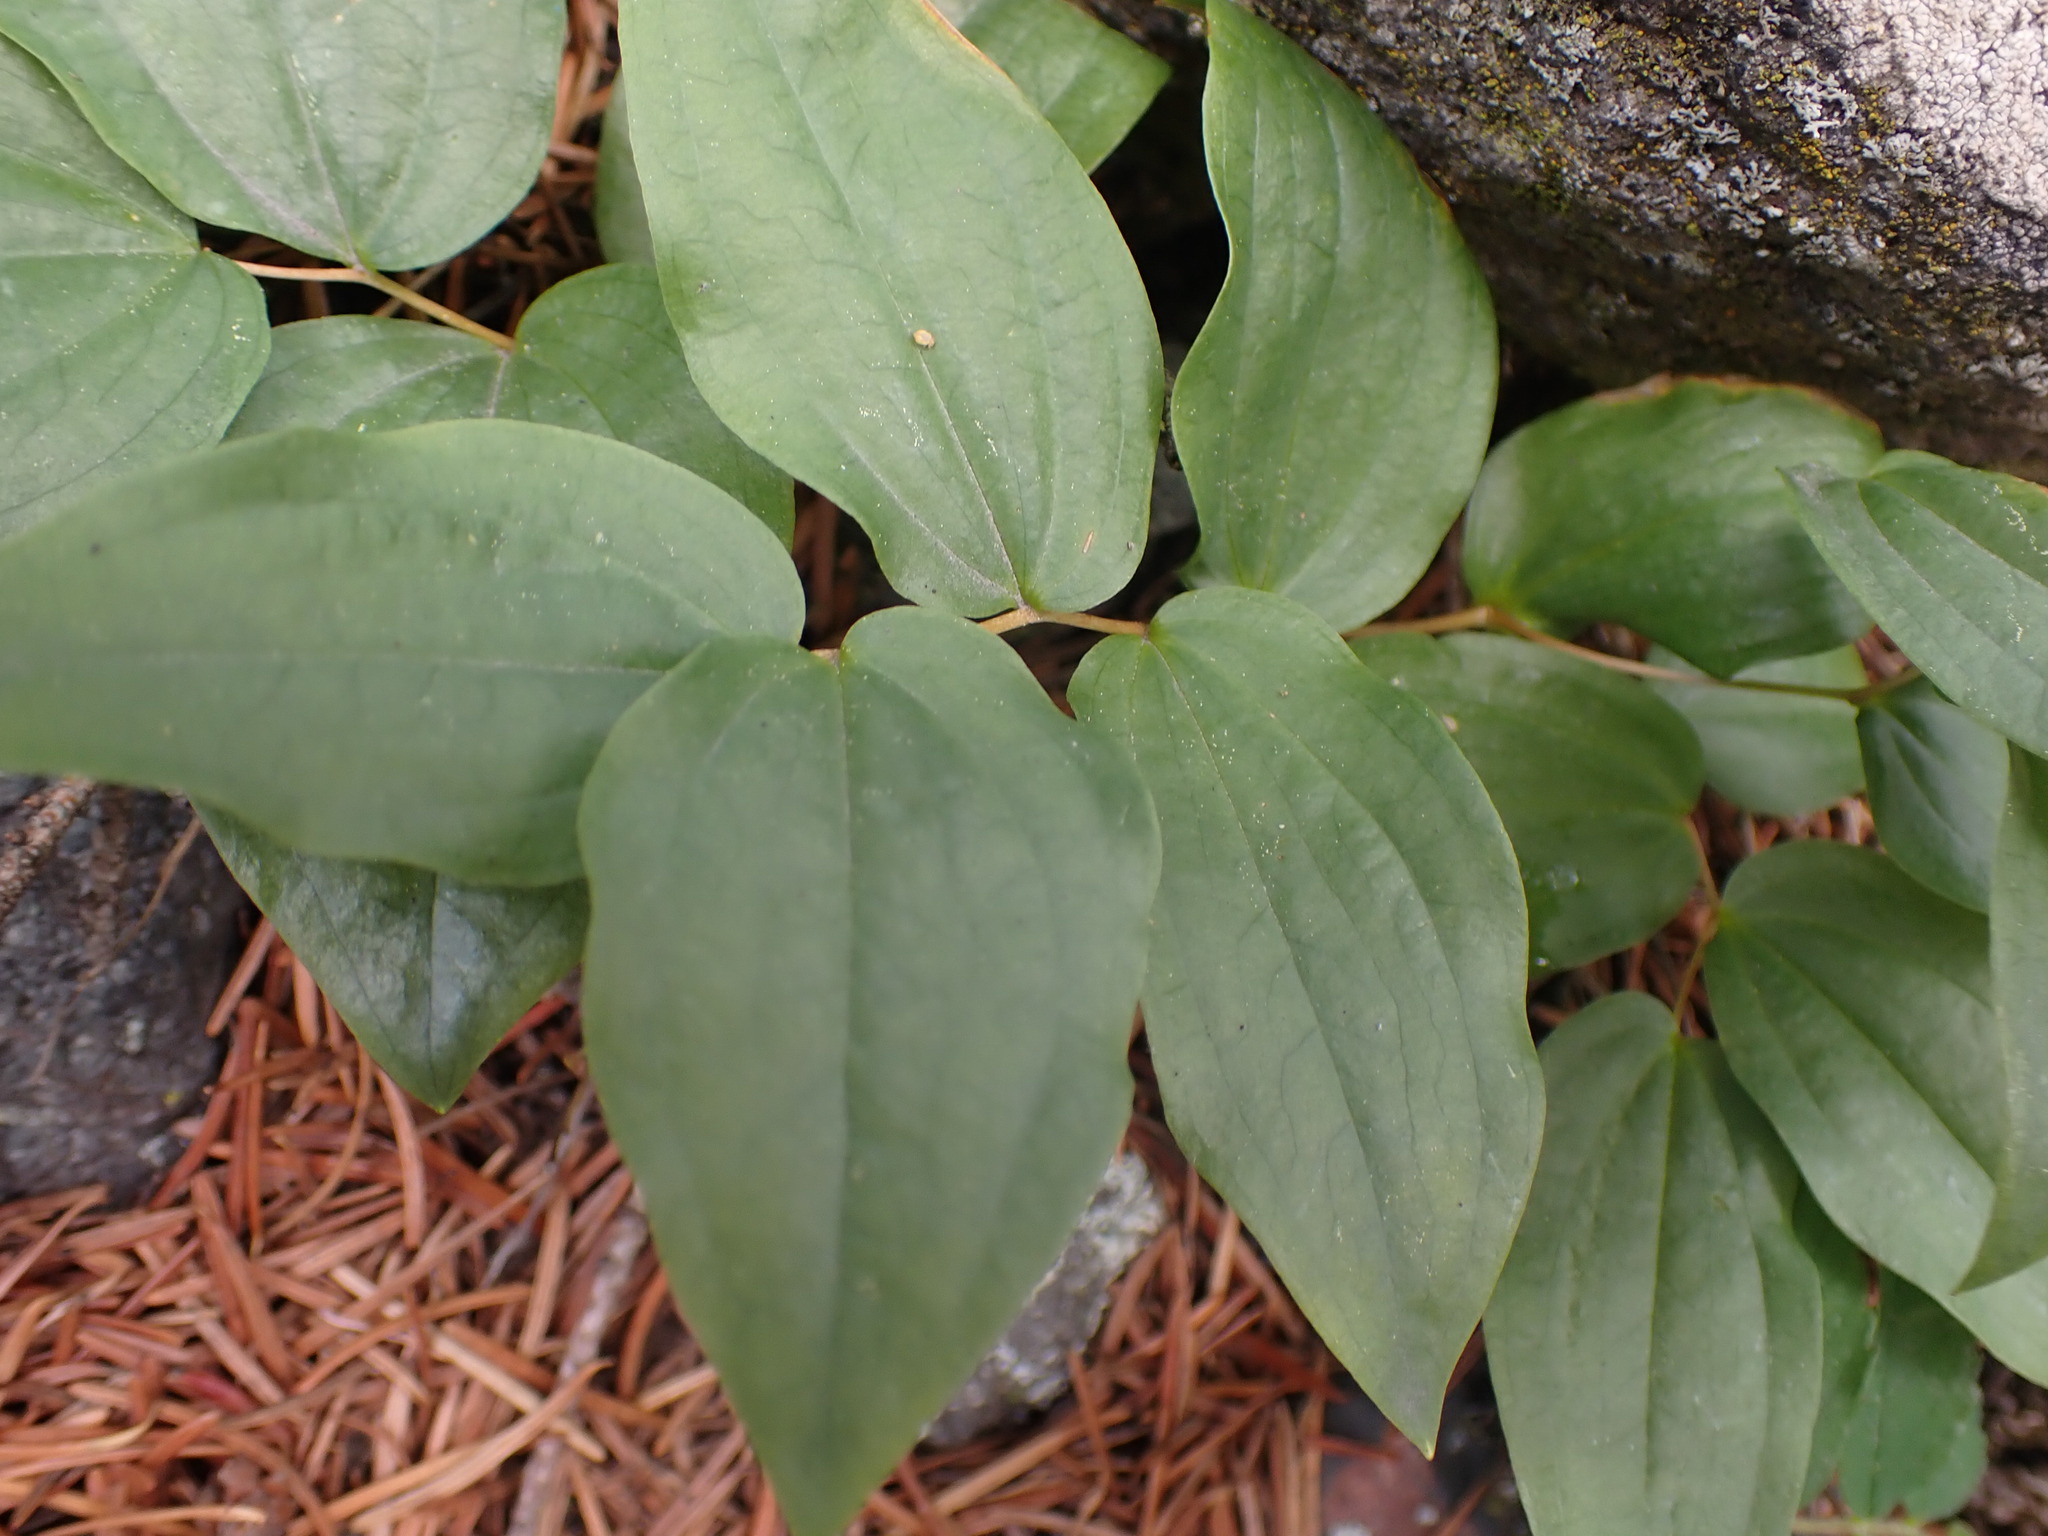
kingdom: Plantae
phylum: Tracheophyta
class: Liliopsida
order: Liliales
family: Liliaceae
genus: Prosartes
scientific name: Prosartes trachycarpa
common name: Rough-fruit fairy-bells
